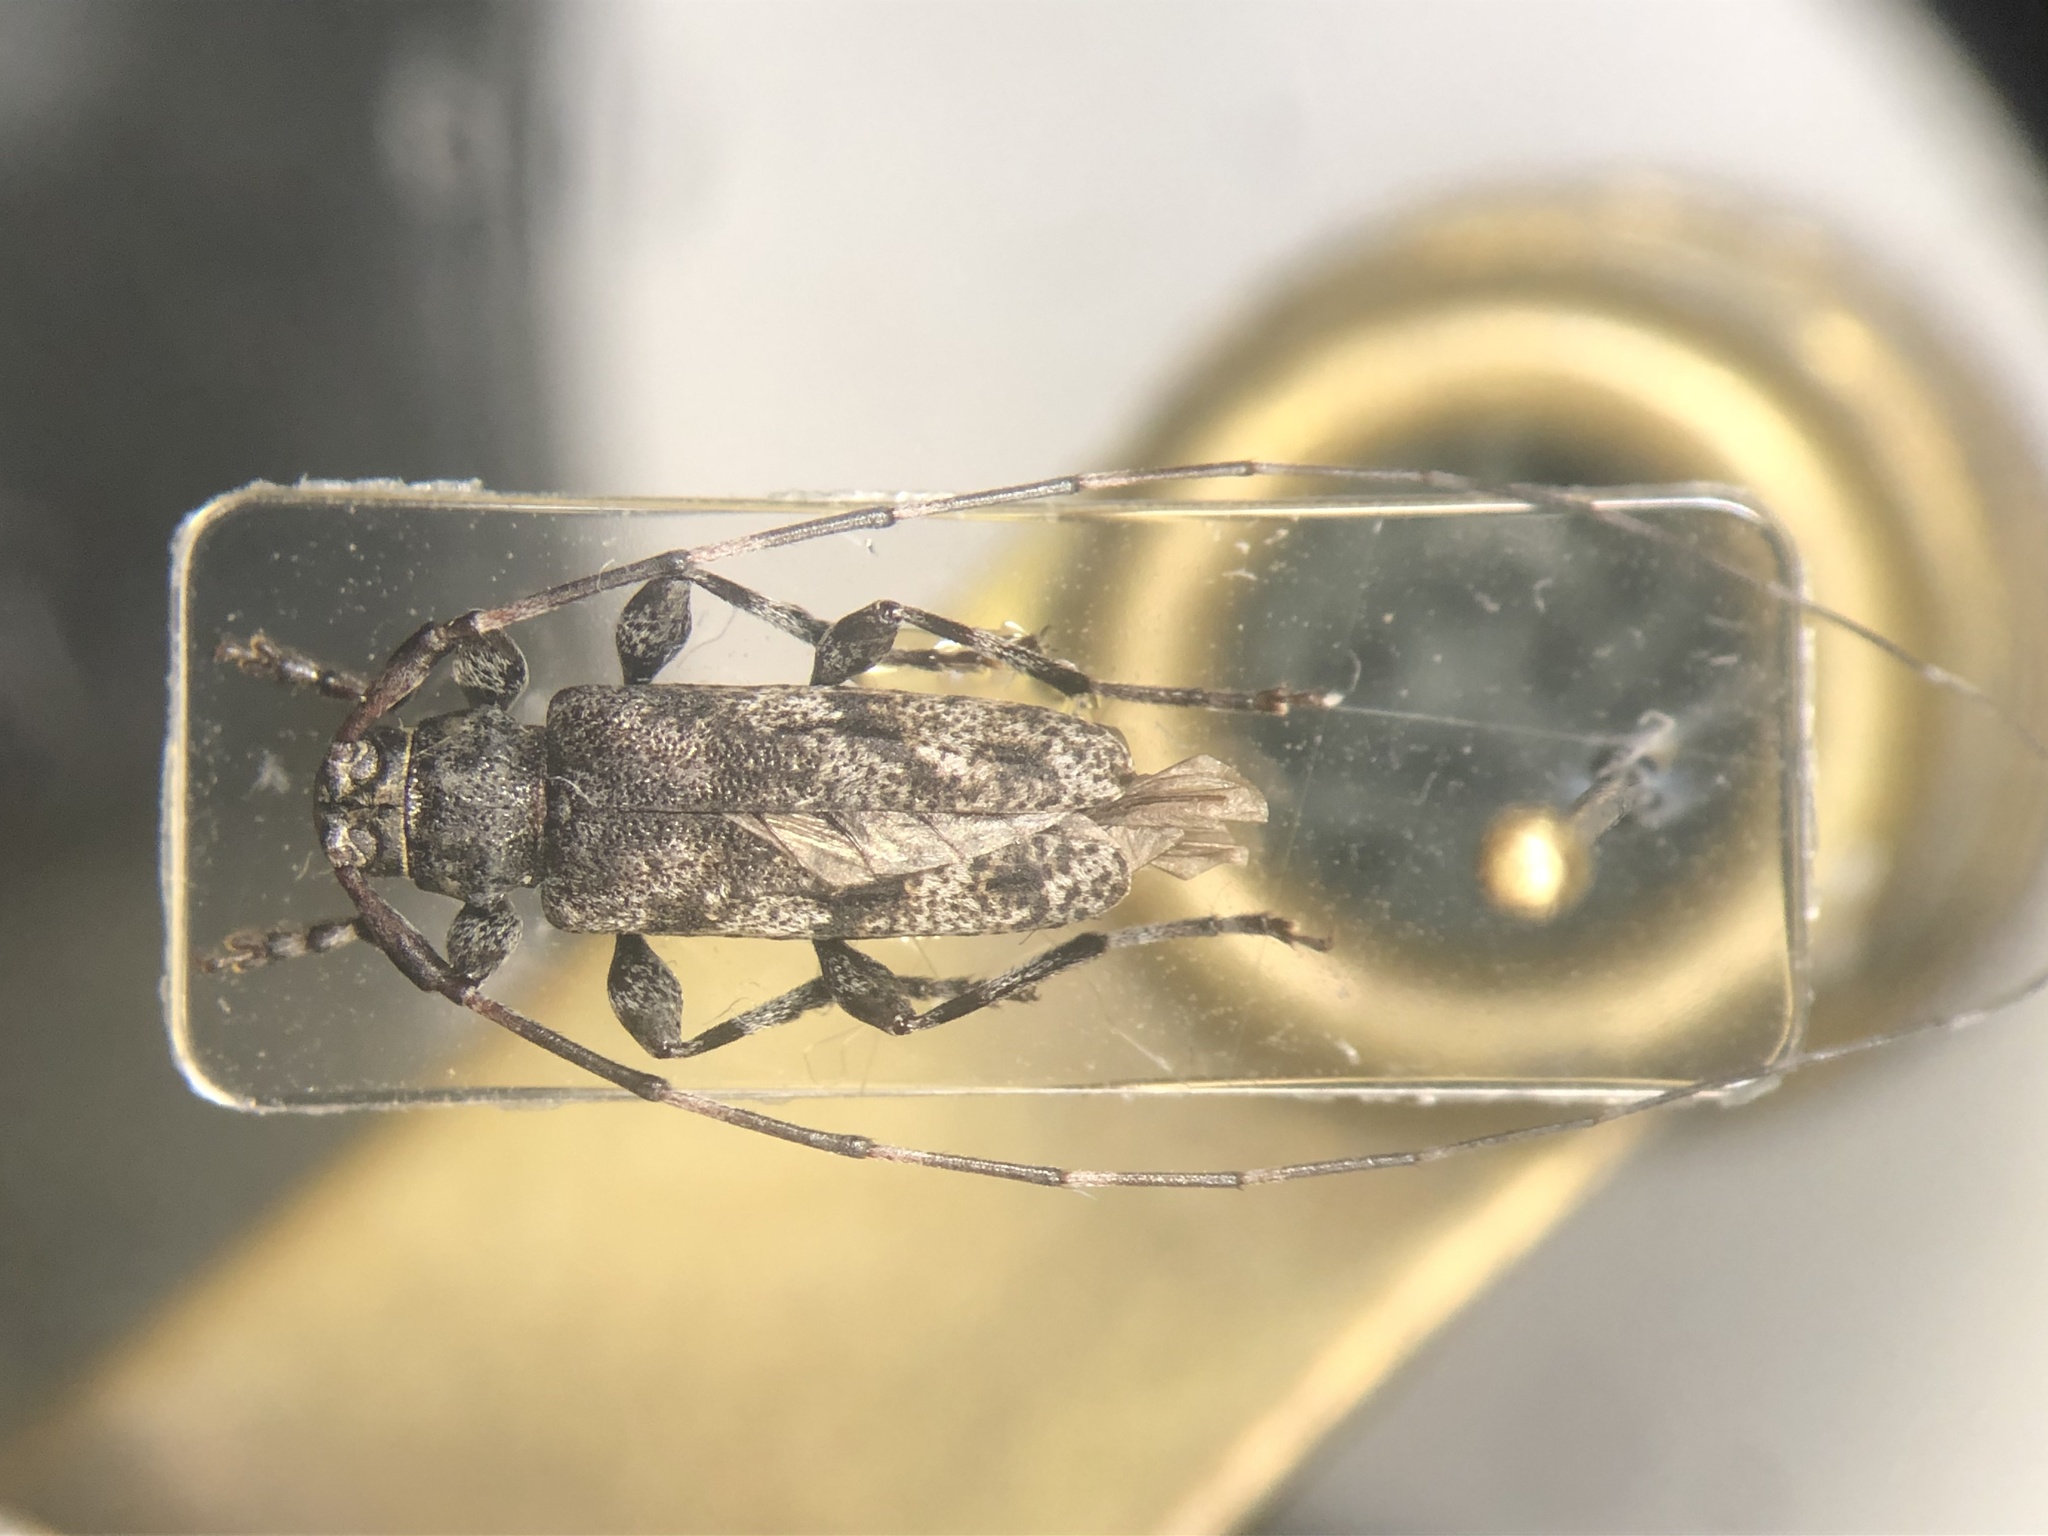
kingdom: Animalia
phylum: Arthropoda
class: Insecta
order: Coleoptera
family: Cerambycidae
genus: Acanthocinus
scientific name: Acanthocinus pusillus
